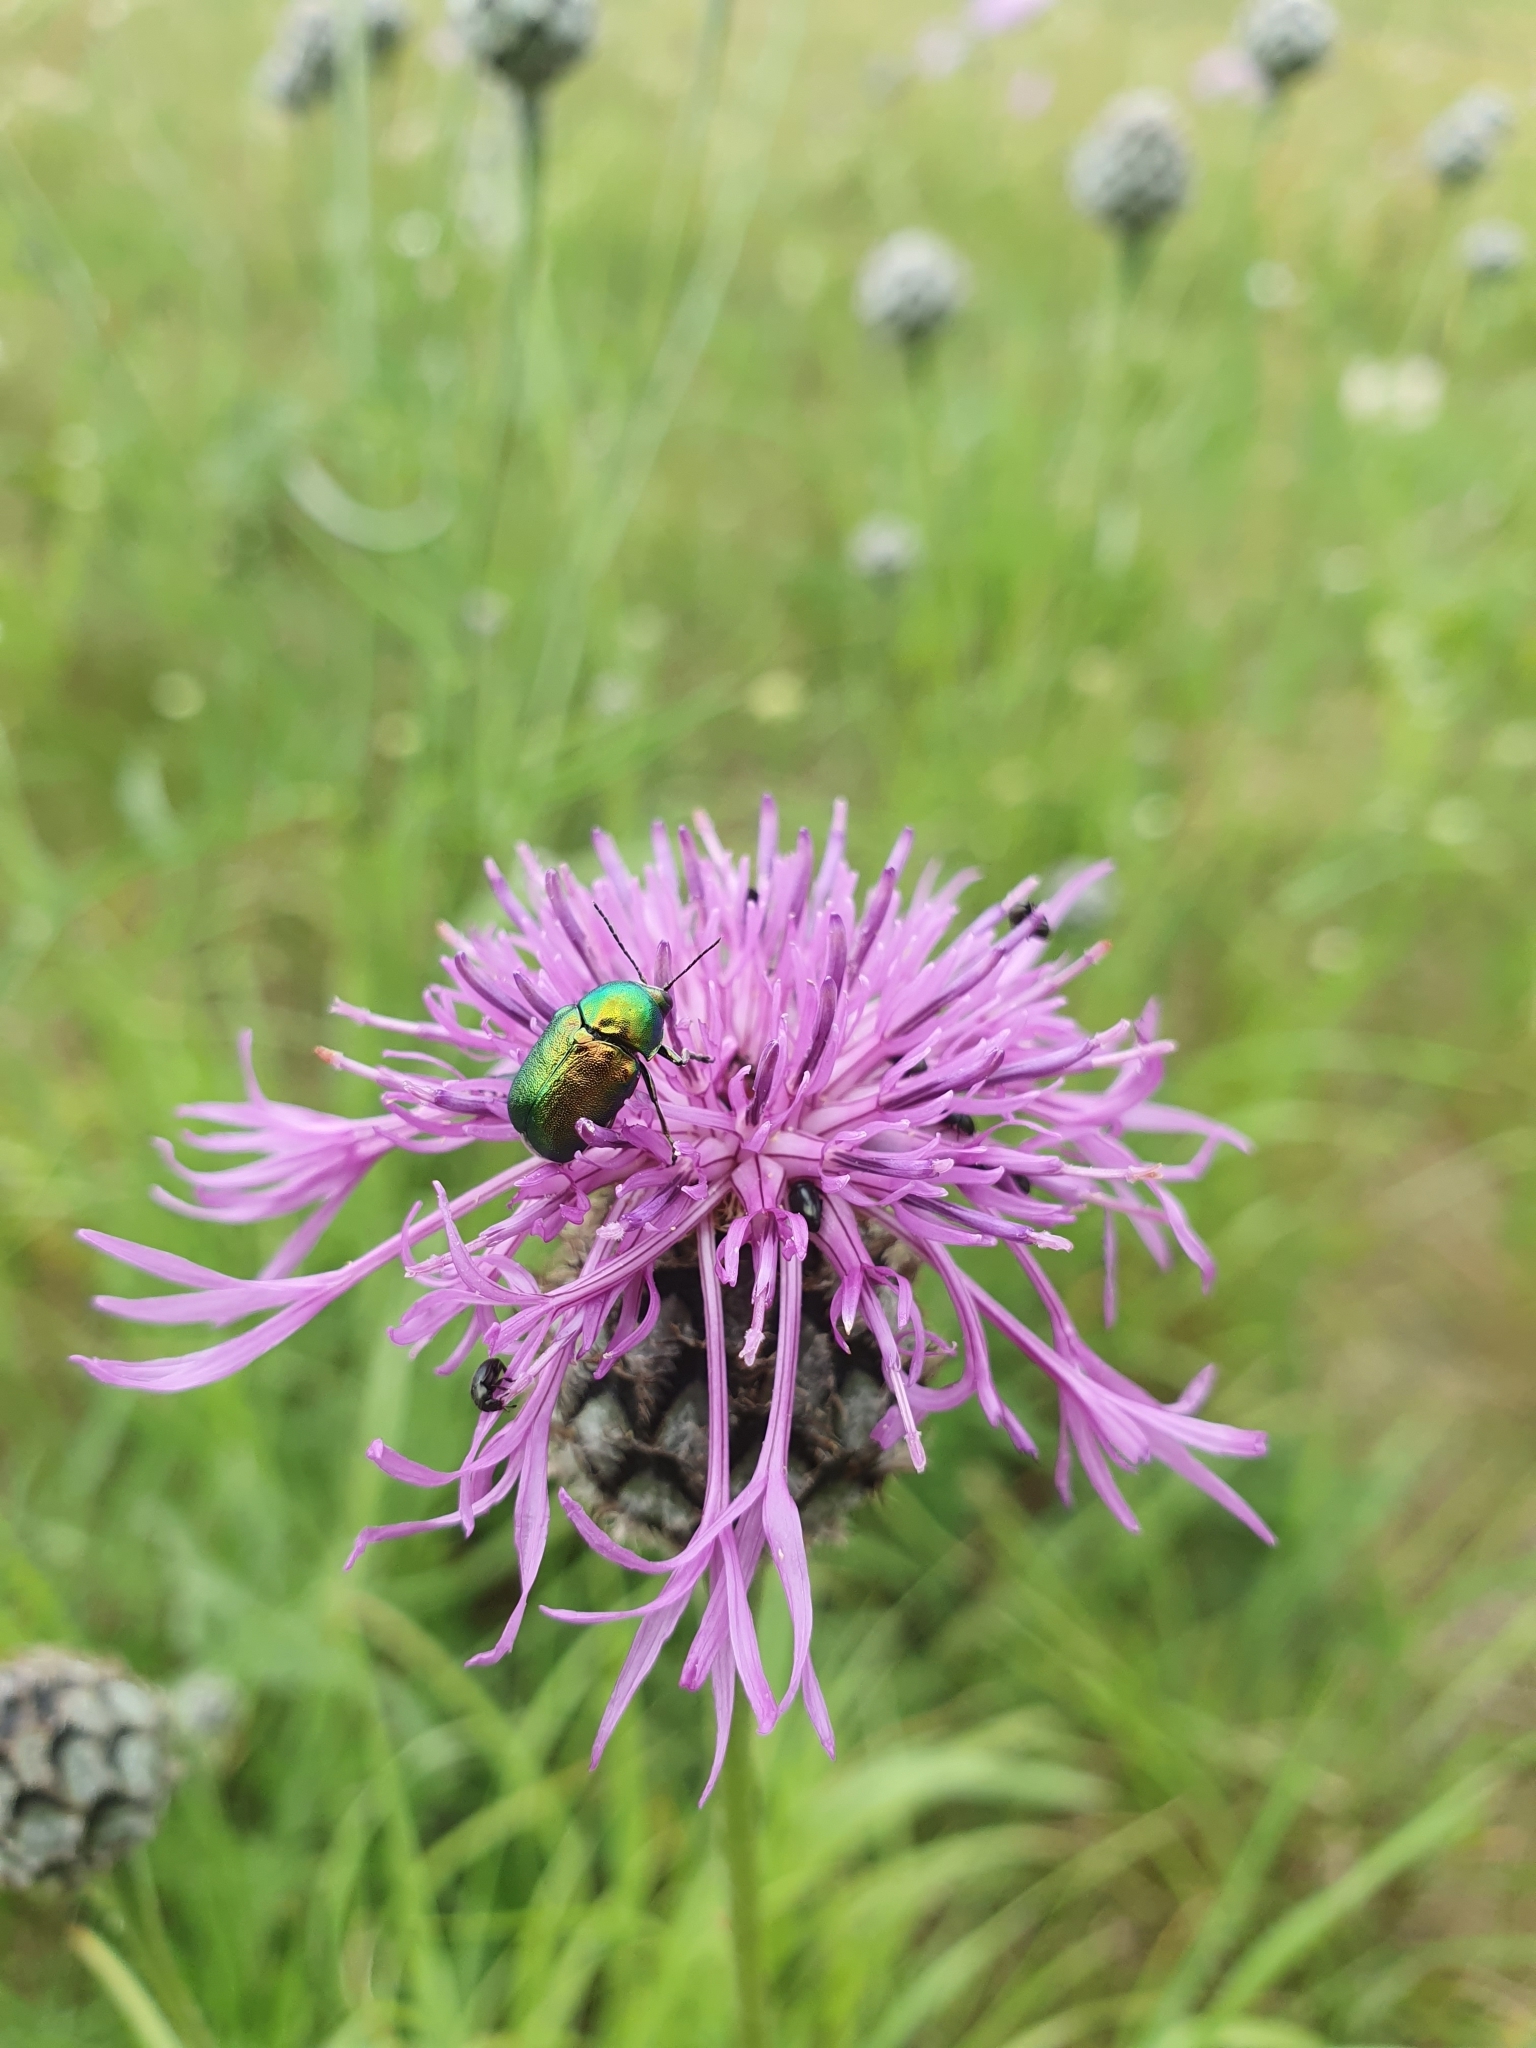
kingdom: Animalia
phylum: Arthropoda
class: Insecta
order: Coleoptera
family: Chrysomelidae
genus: Cryptocephalus
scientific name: Cryptocephalus
